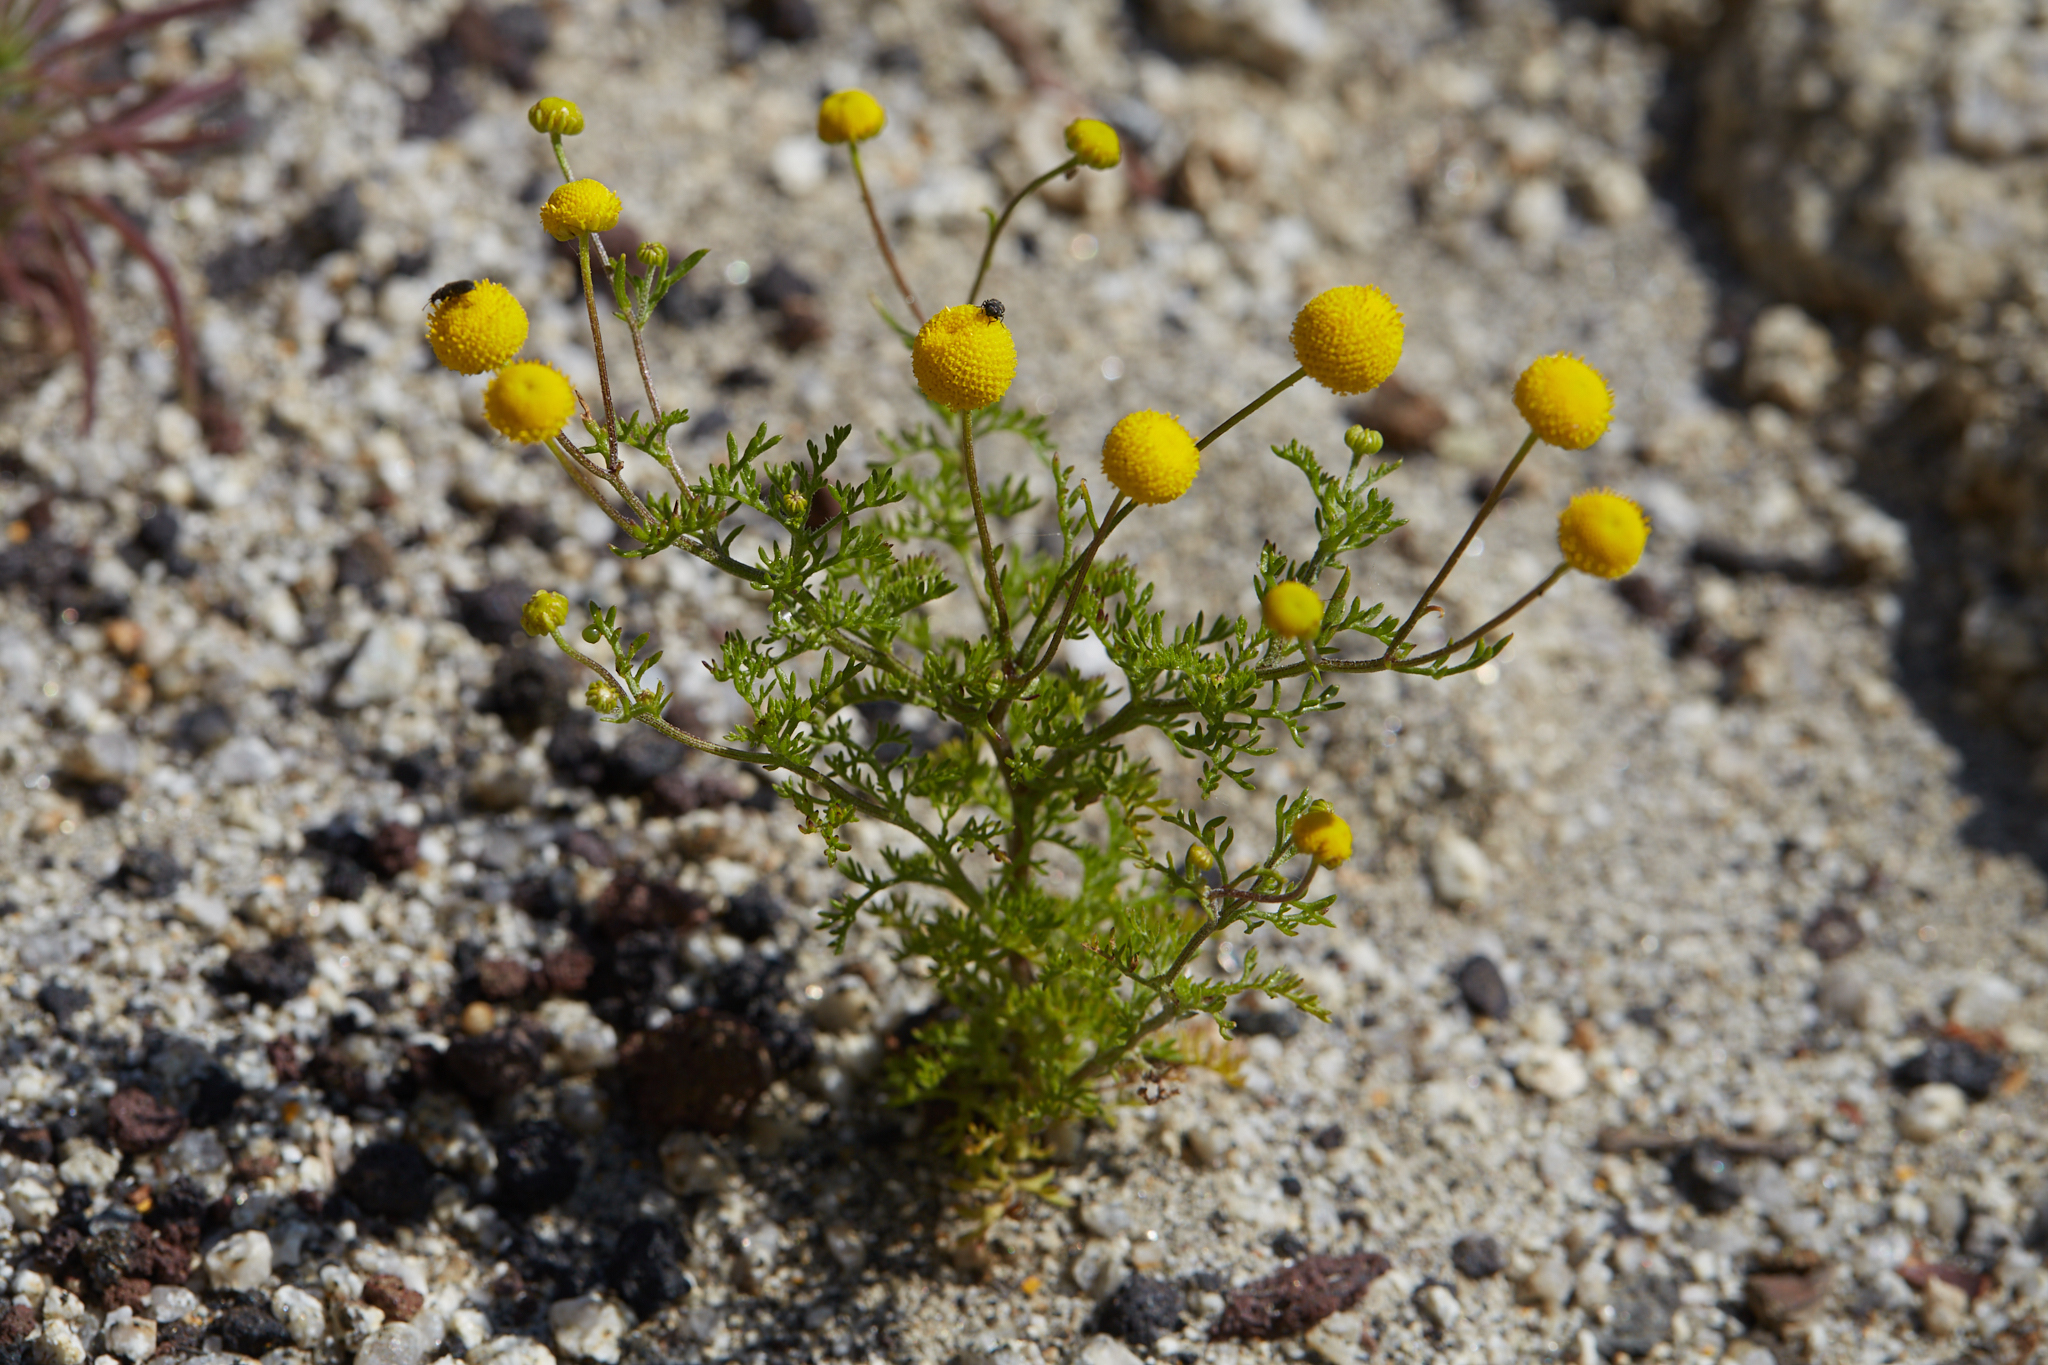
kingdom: Plantae
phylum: Tracheophyta
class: Magnoliopsida
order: Asterales
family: Asteraceae
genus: Oncosiphon
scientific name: Oncosiphon pilulifer
